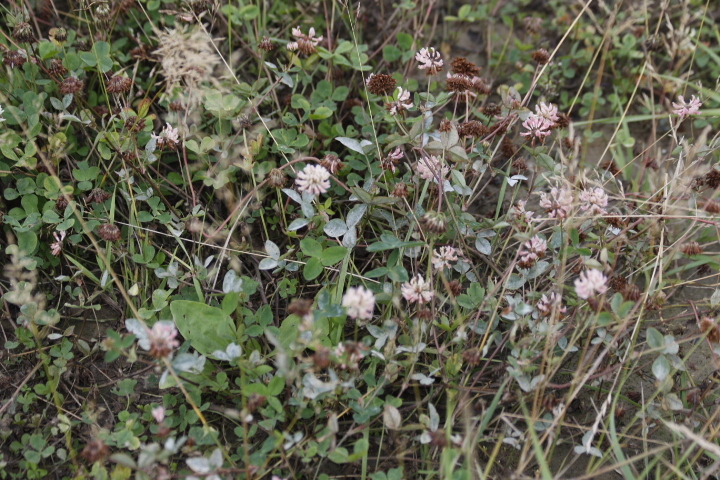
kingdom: Plantae
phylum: Tracheophyta
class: Magnoliopsida
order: Fabales
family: Fabaceae
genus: Trifolium
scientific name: Trifolium hybridum
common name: Alsike clover
